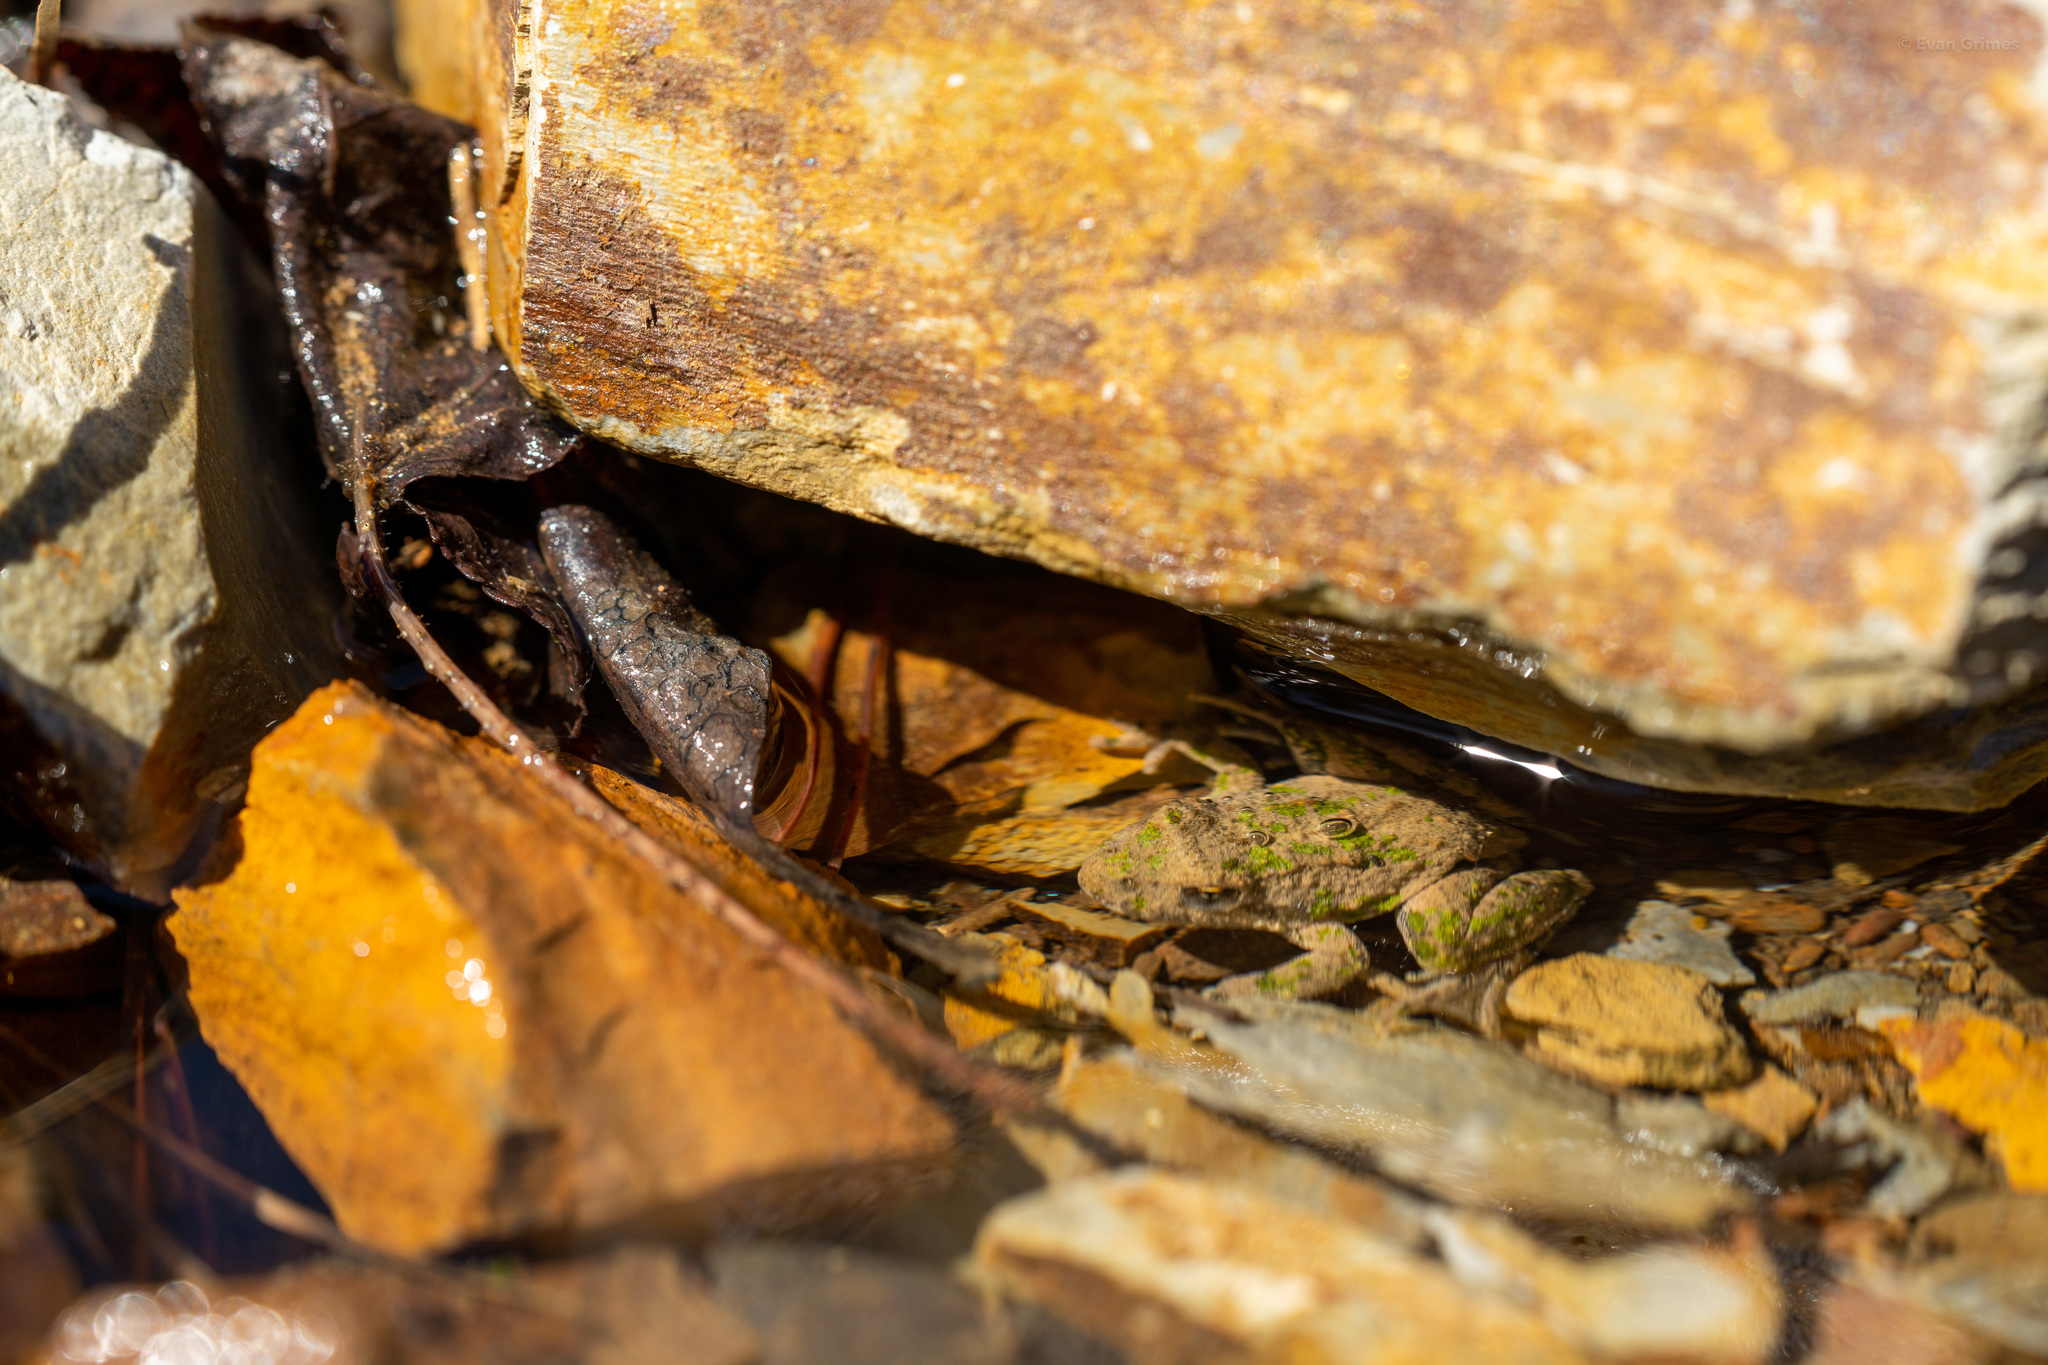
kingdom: Animalia
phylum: Chordata
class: Amphibia
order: Anura
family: Hylidae
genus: Acris
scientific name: Acris blanchardi
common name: Blanchard's cricket frog
